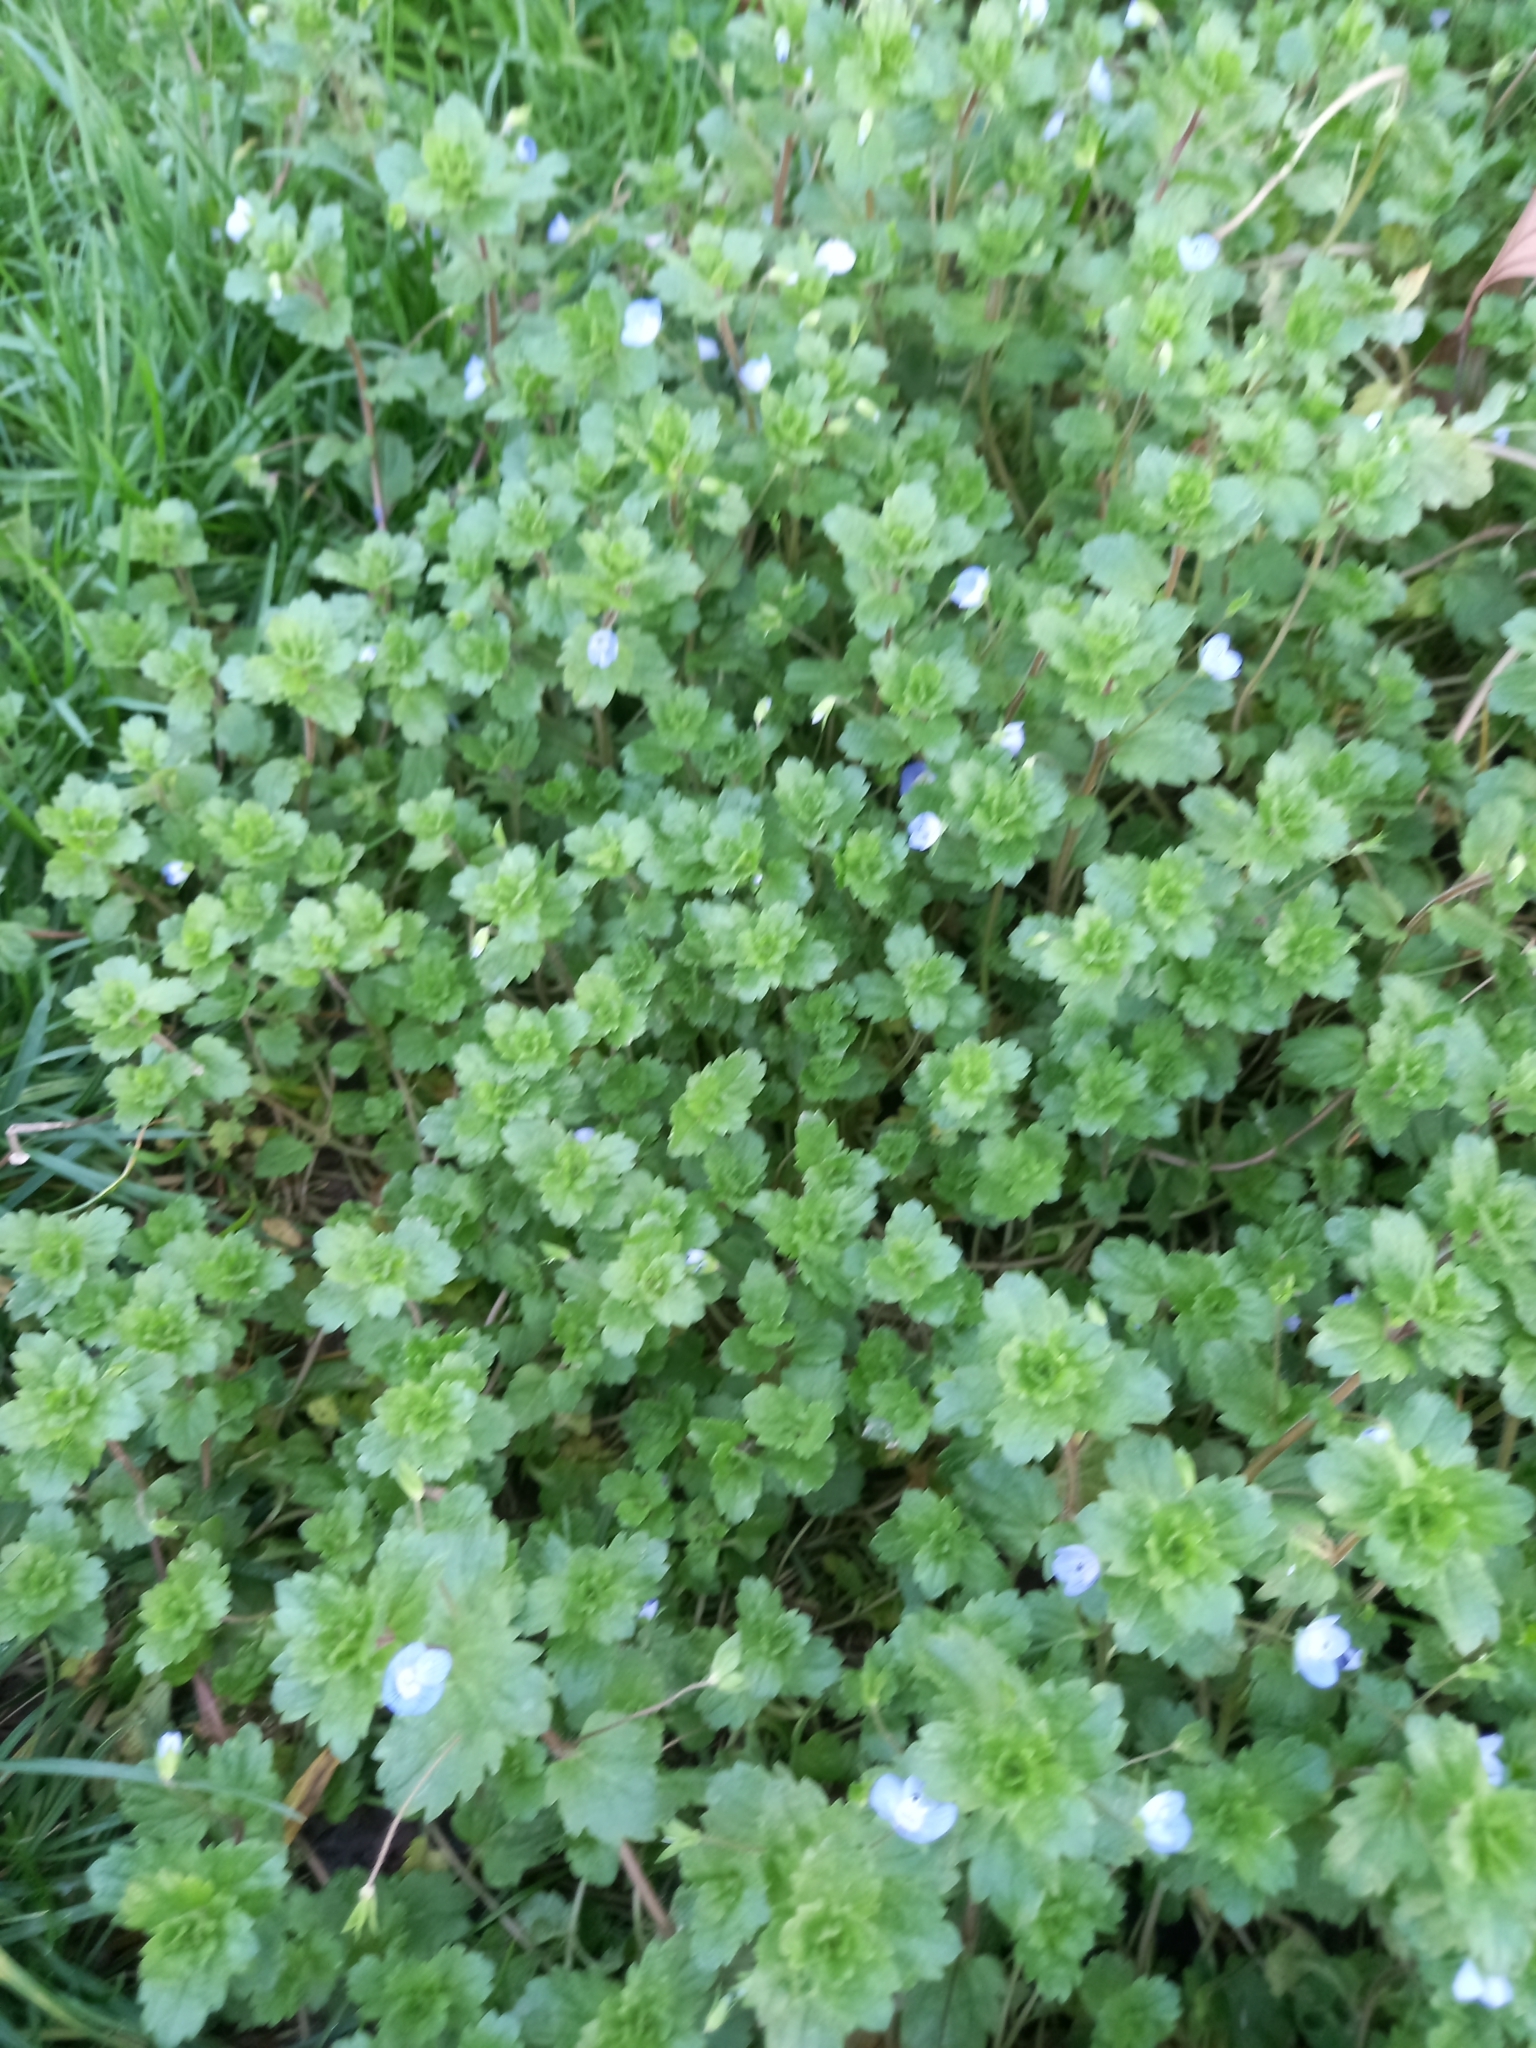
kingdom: Plantae
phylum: Tracheophyta
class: Magnoliopsida
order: Lamiales
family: Plantaginaceae
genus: Veronica
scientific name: Veronica persica
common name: Common field-speedwell
